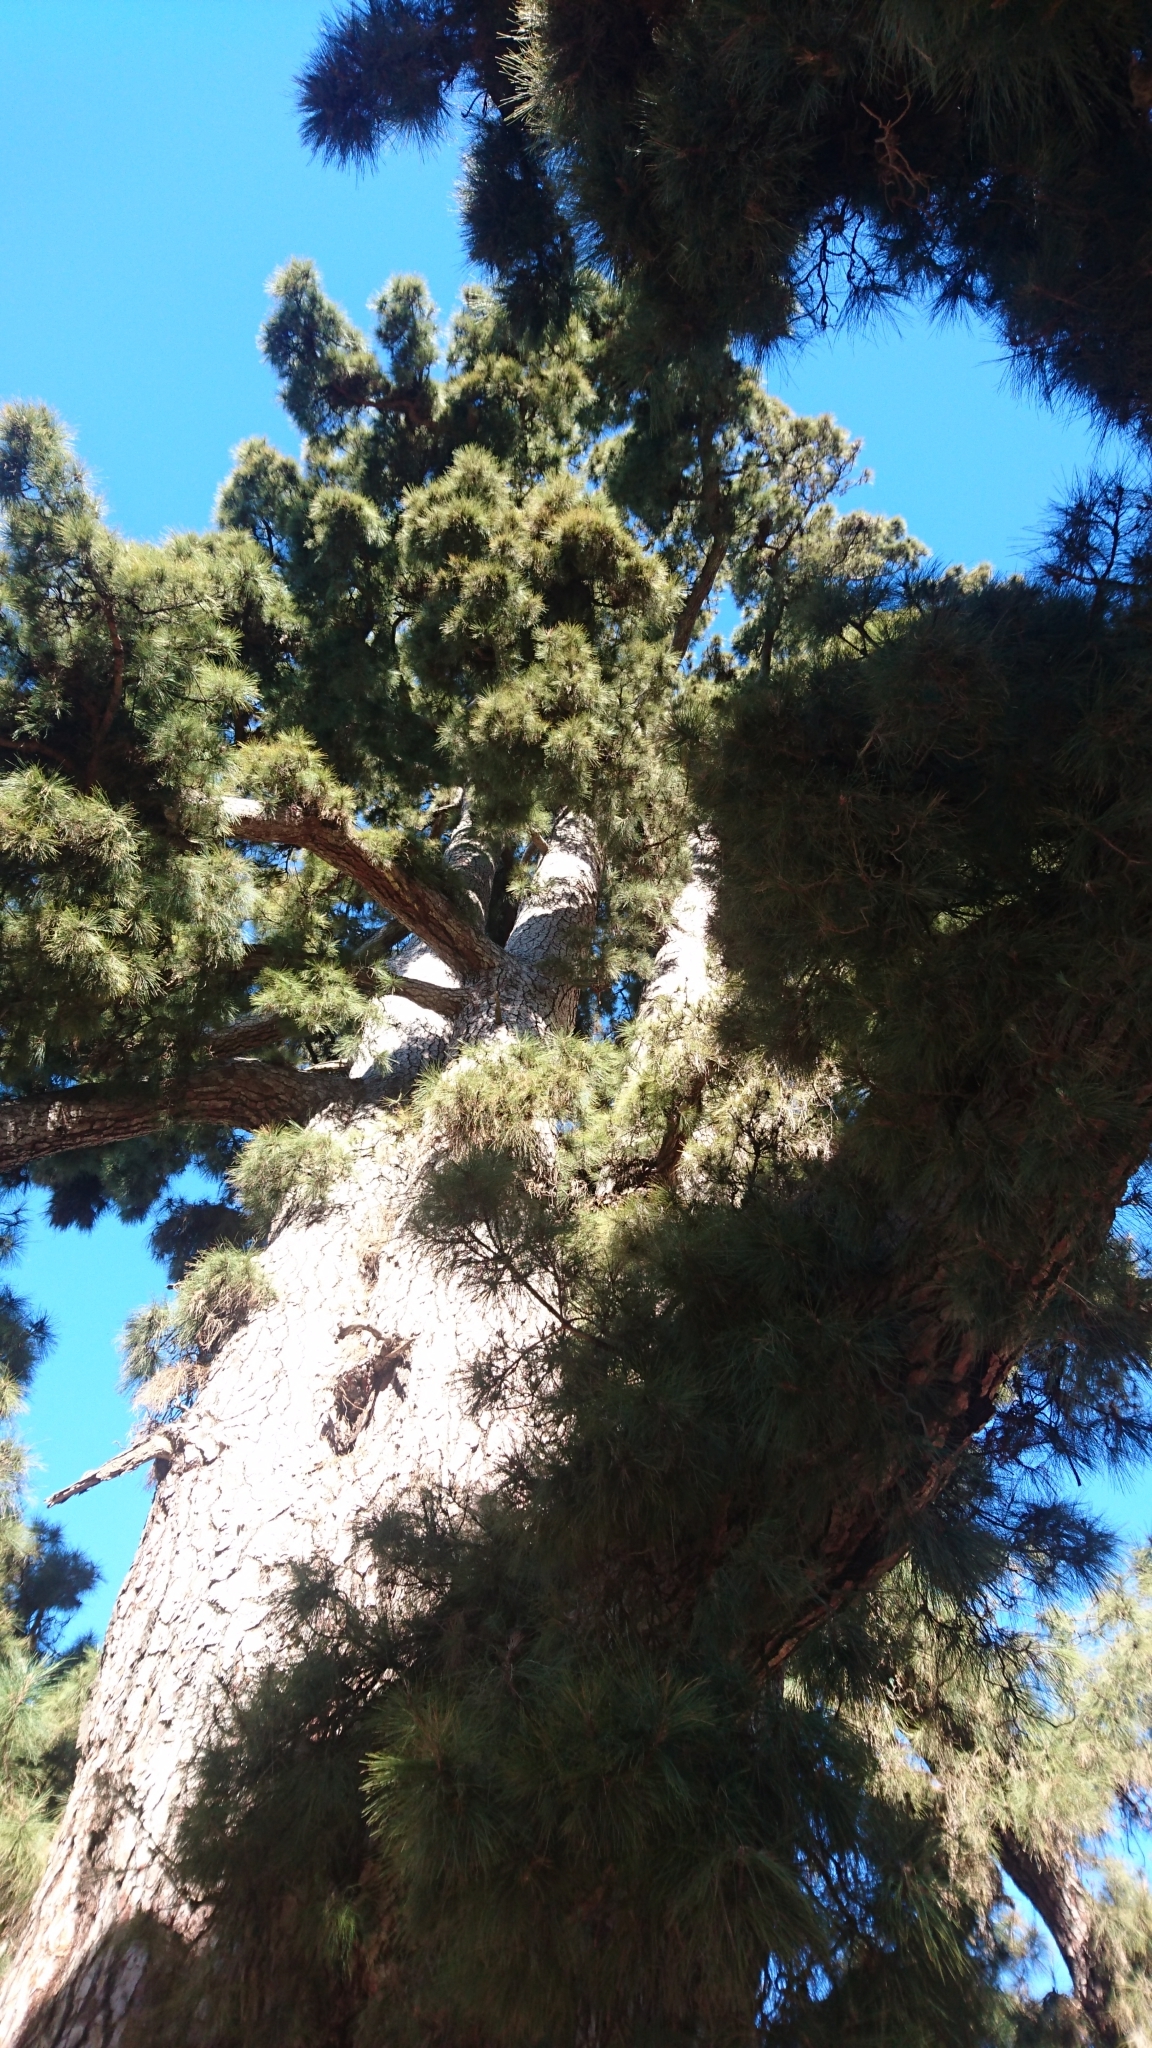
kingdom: Plantae
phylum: Tracheophyta
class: Pinopsida
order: Pinales
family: Pinaceae
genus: Pinus
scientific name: Pinus canariensis
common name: Canary islands pine
